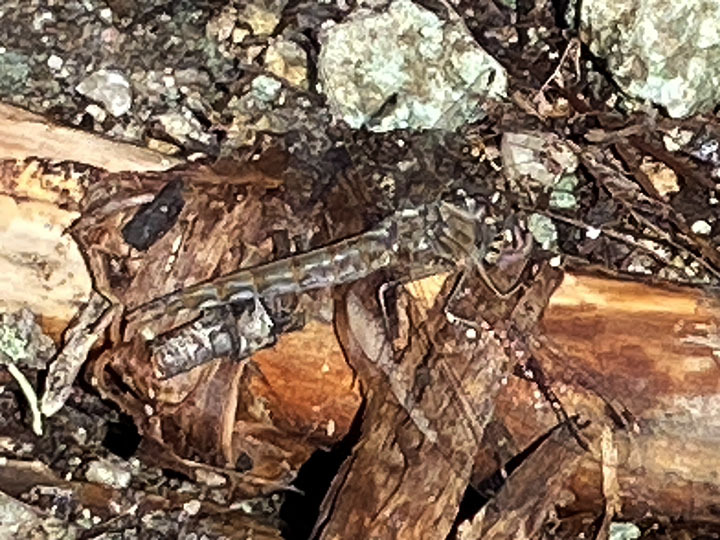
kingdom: Animalia
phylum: Arthropoda
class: Insecta
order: Odonata
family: Libellulidae
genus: Sympetrum
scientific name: Sympetrum corruptum
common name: Variegated meadowhawk
